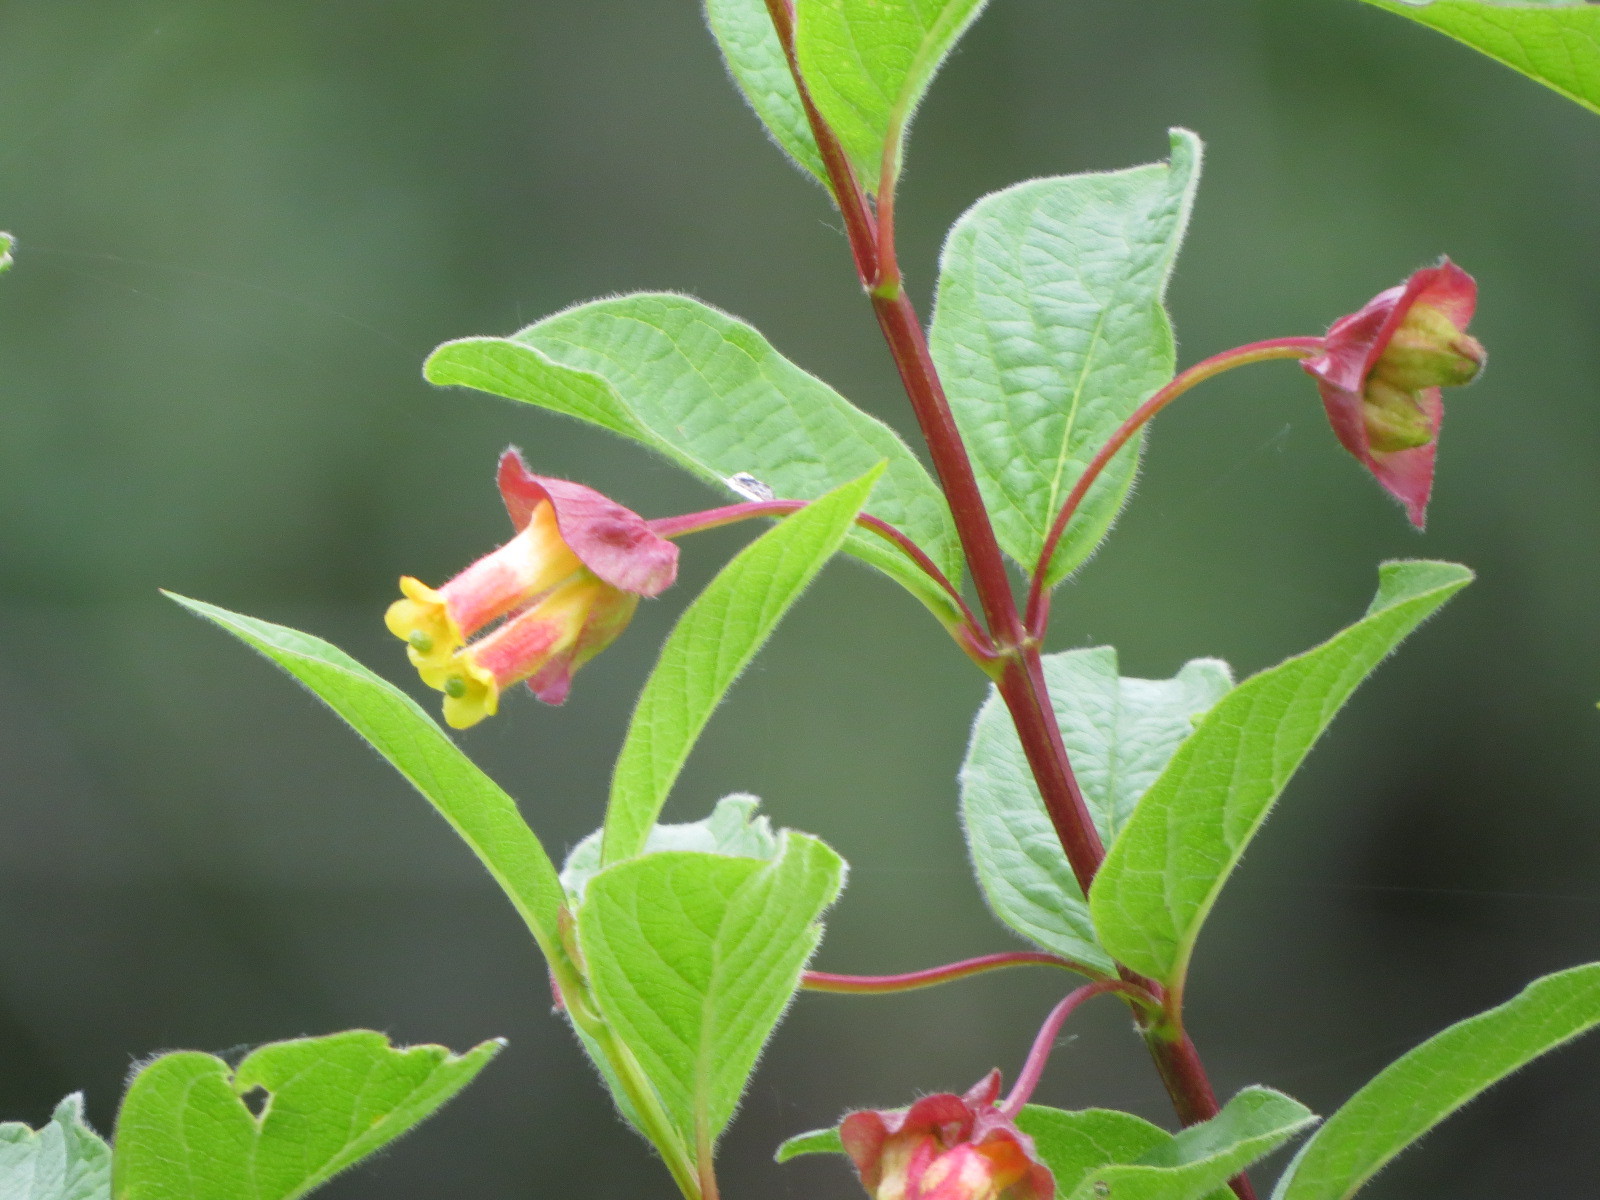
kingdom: Plantae
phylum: Tracheophyta
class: Magnoliopsida
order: Dipsacales
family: Caprifoliaceae
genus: Lonicera
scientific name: Lonicera involucrata
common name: Californian honeysuckle
